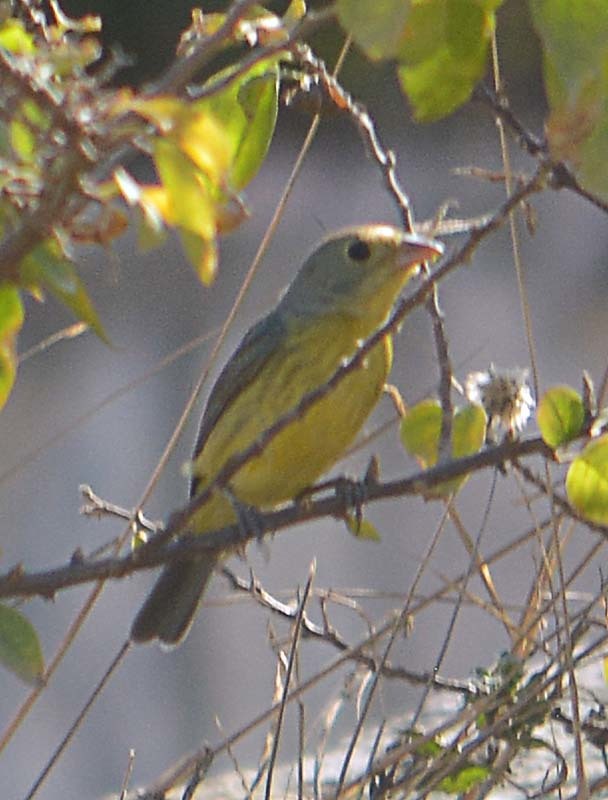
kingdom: Animalia
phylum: Chordata
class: Aves
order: Passeriformes
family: Cardinalidae
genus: Passerina
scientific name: Passerina leclancherii
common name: Orange-breasted bunting
